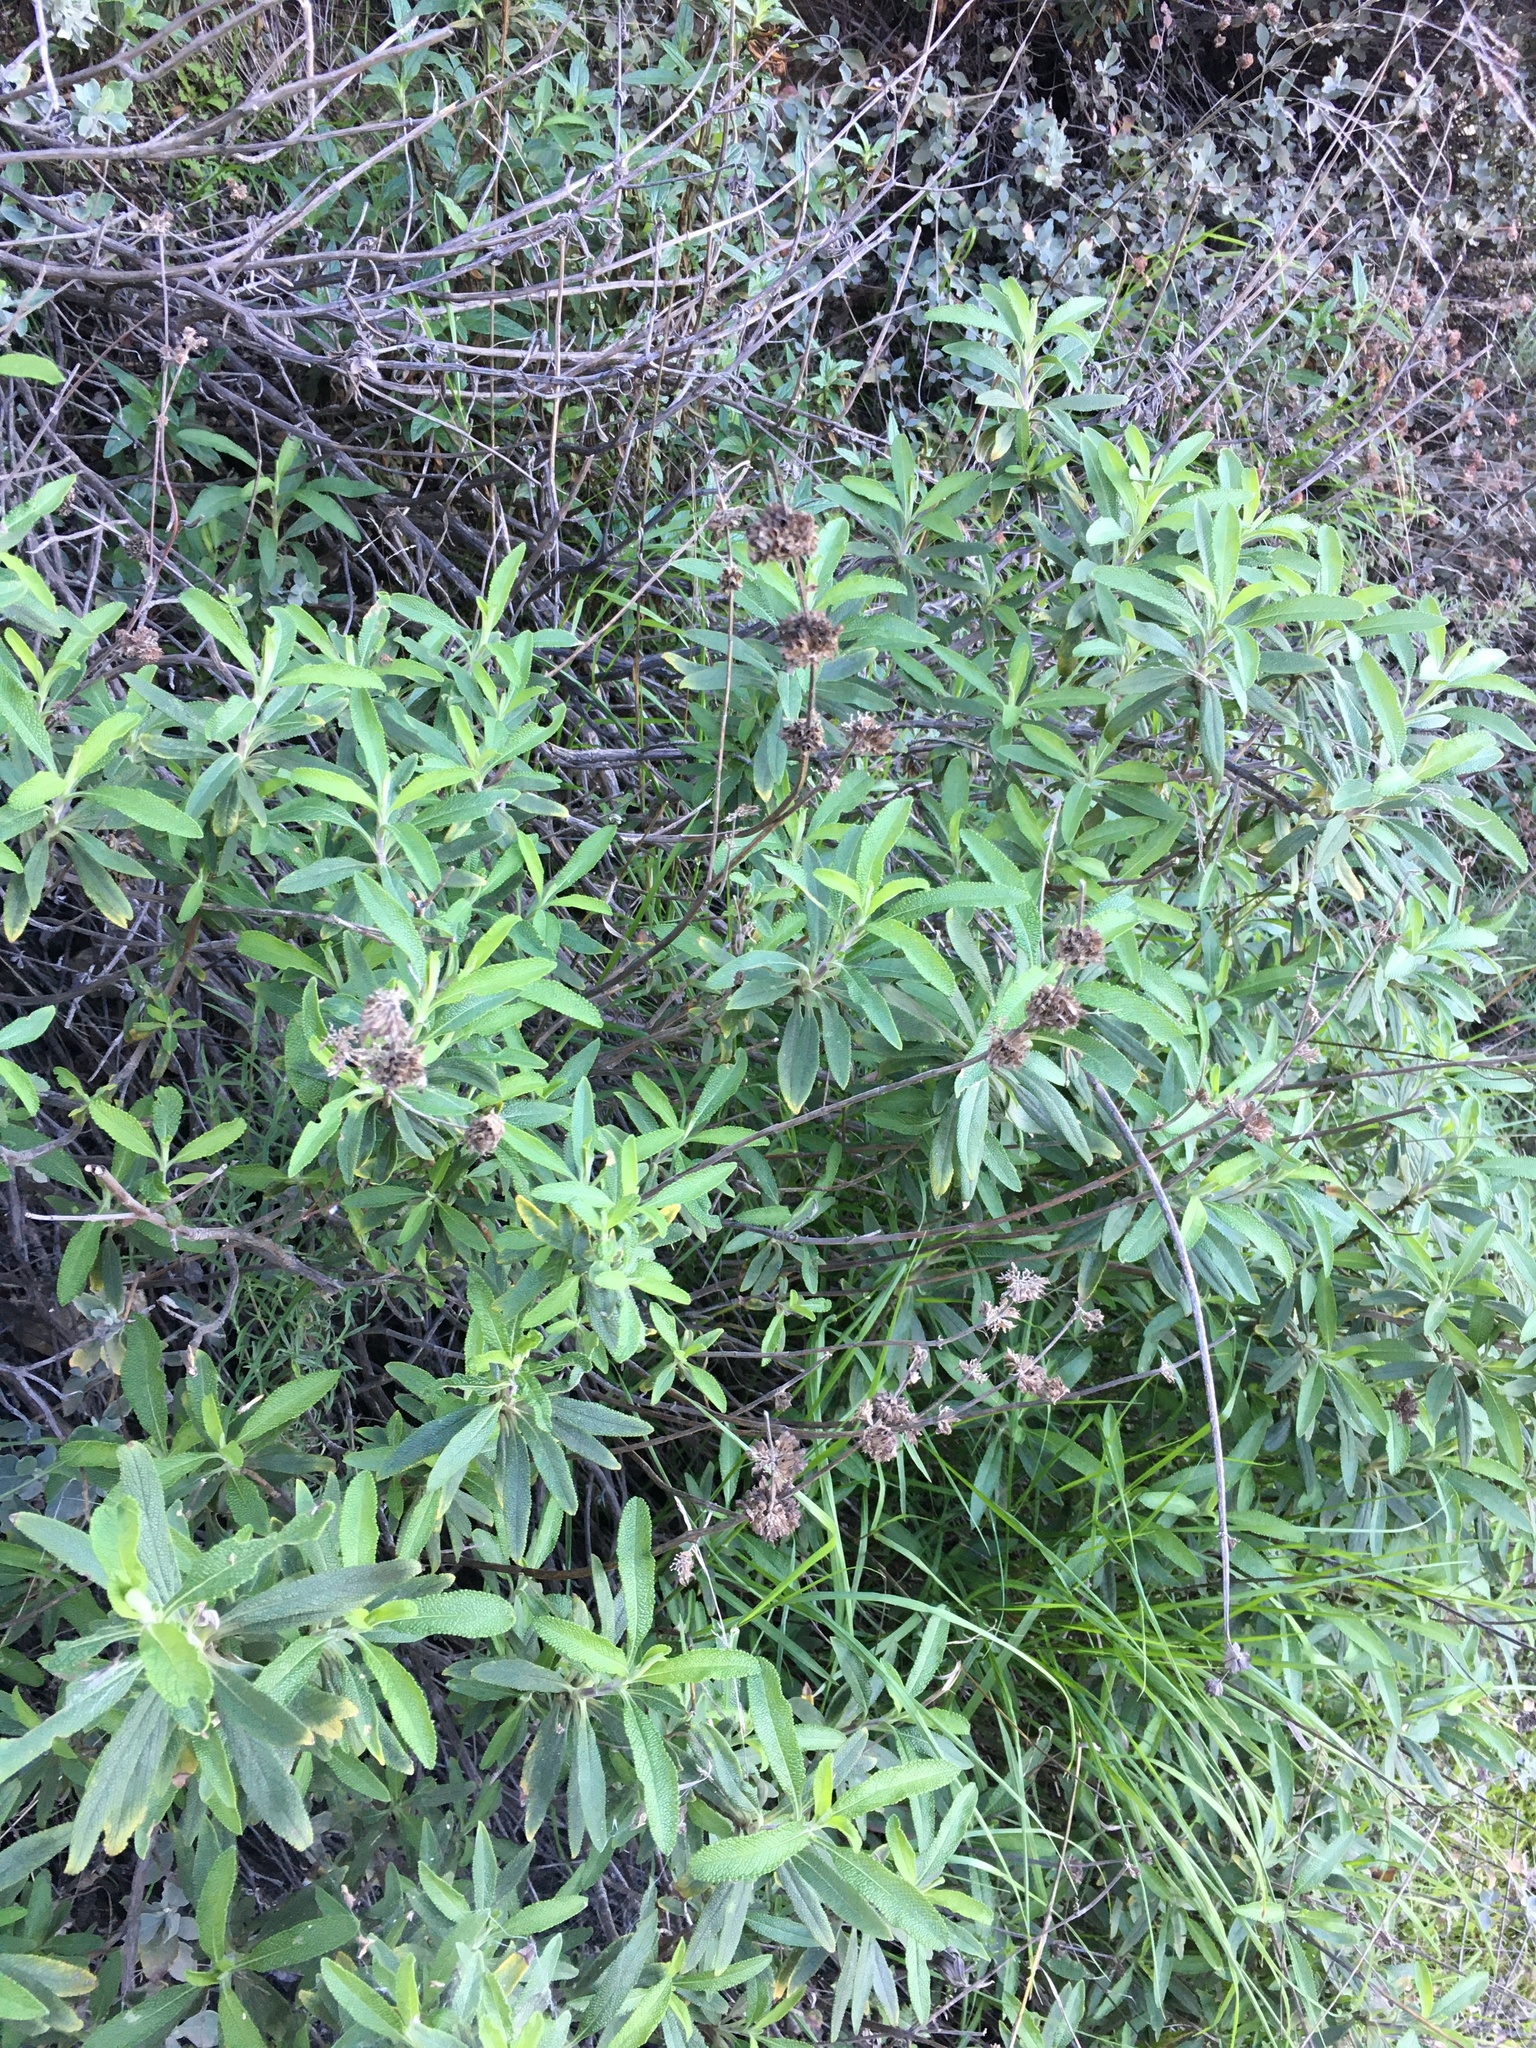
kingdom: Plantae
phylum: Tracheophyta
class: Magnoliopsida
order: Lamiales
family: Lamiaceae
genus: Salvia
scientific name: Salvia mellifera
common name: Black sage
